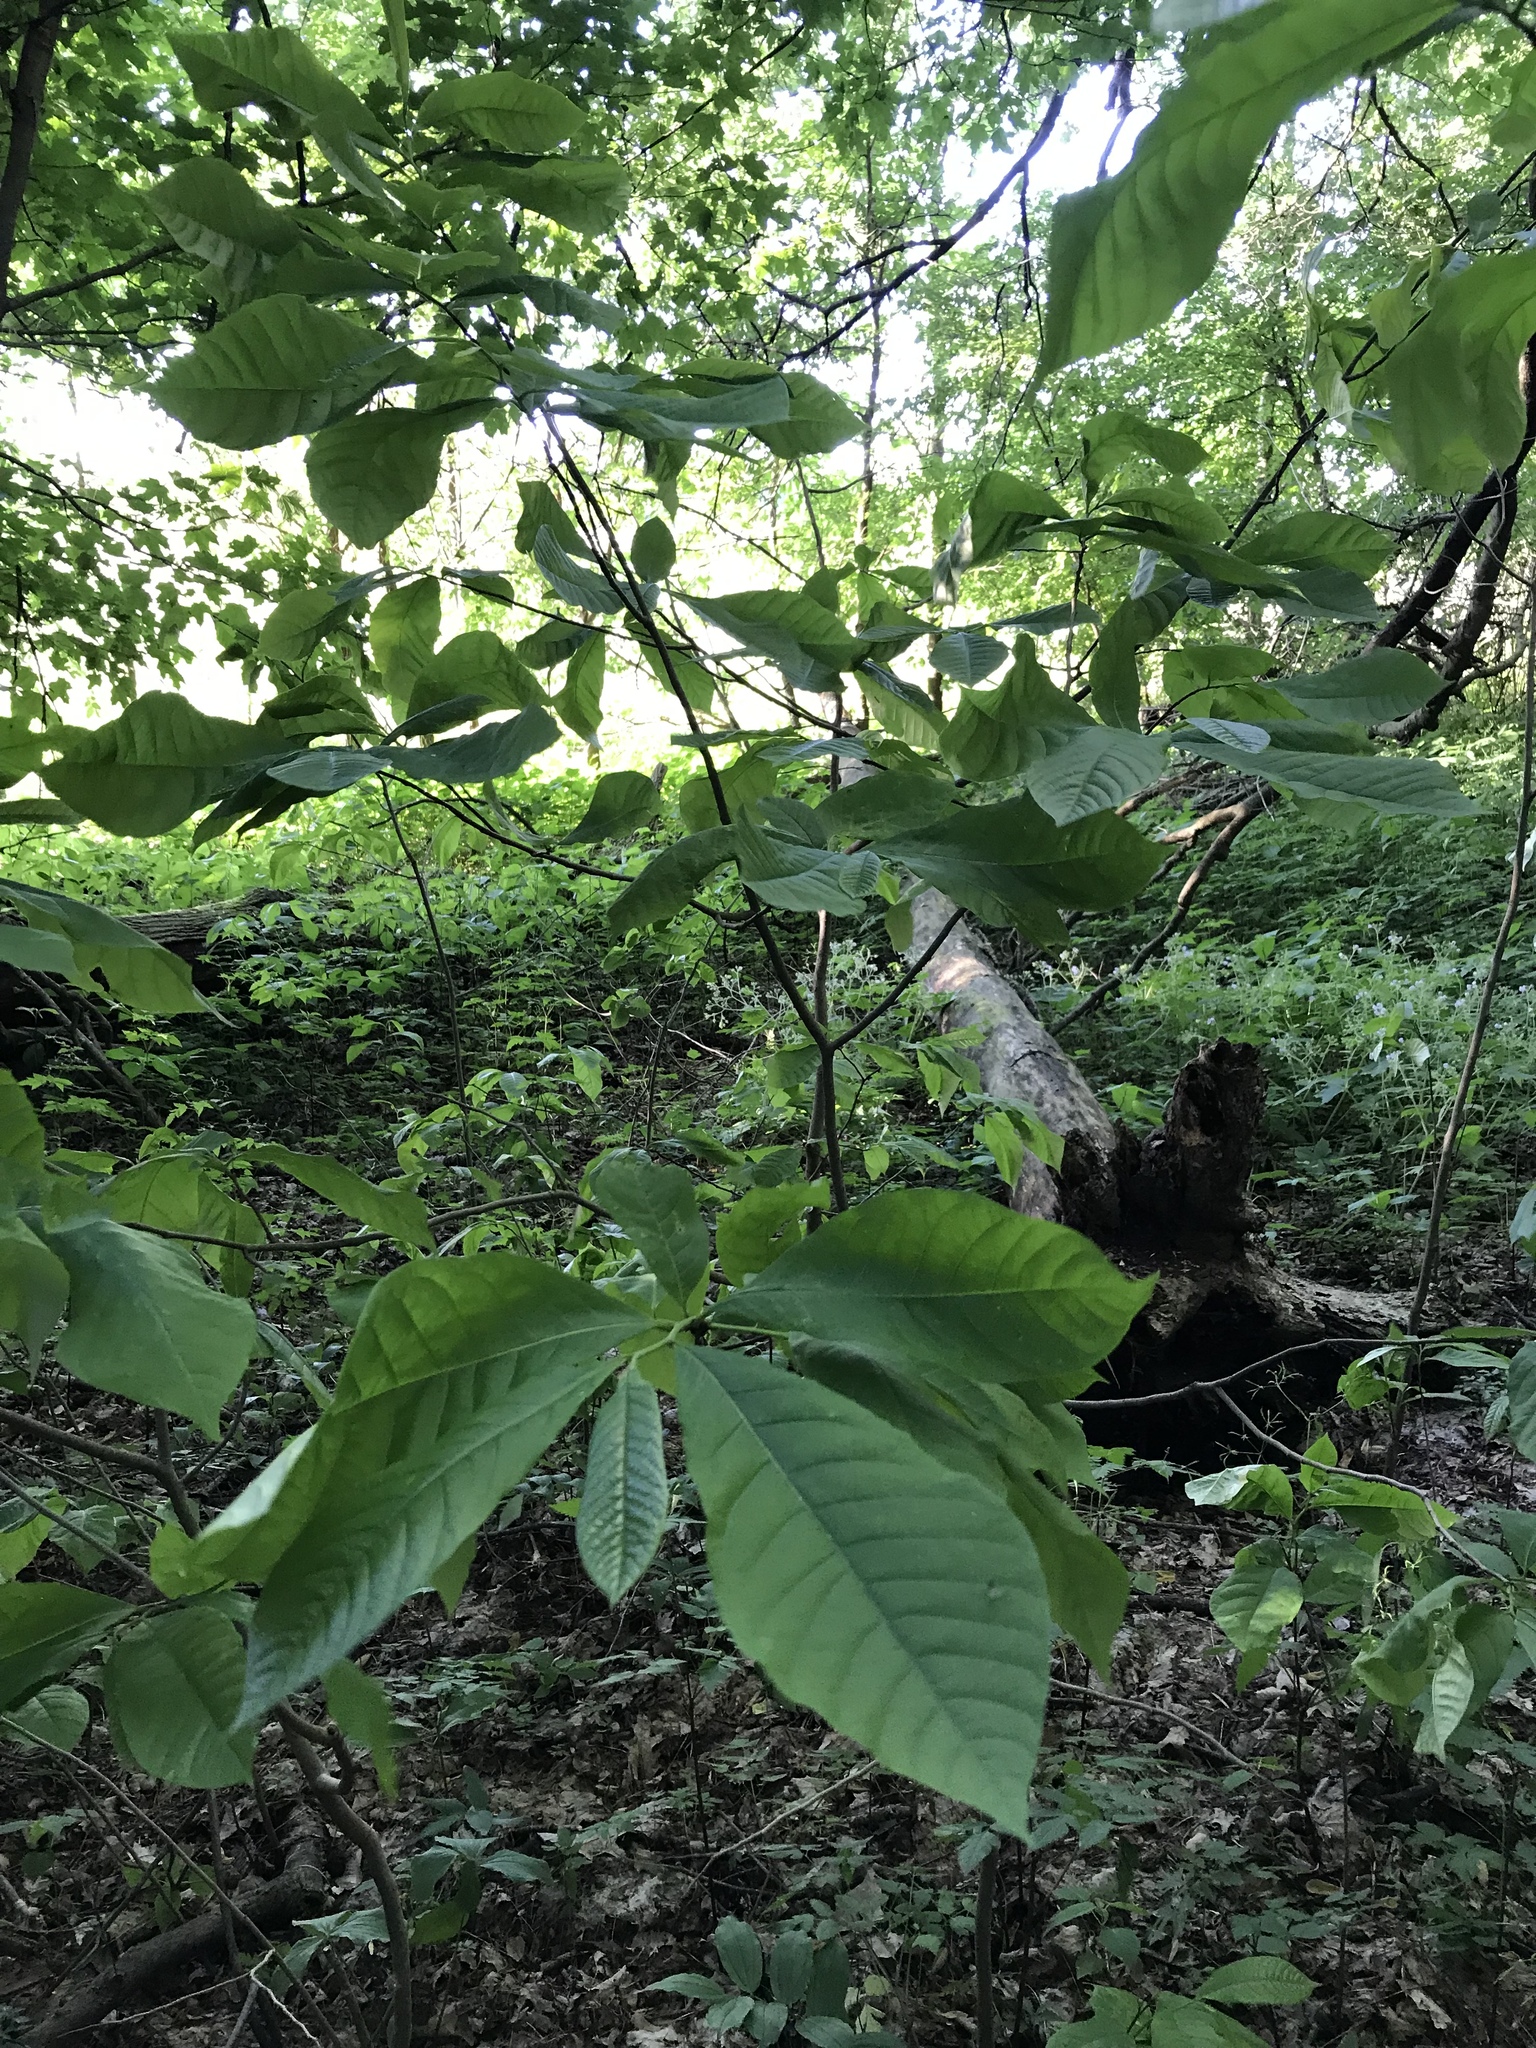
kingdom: Plantae
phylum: Tracheophyta
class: Magnoliopsida
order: Magnoliales
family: Annonaceae
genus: Asimina
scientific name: Asimina triloba
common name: Dog-banana
